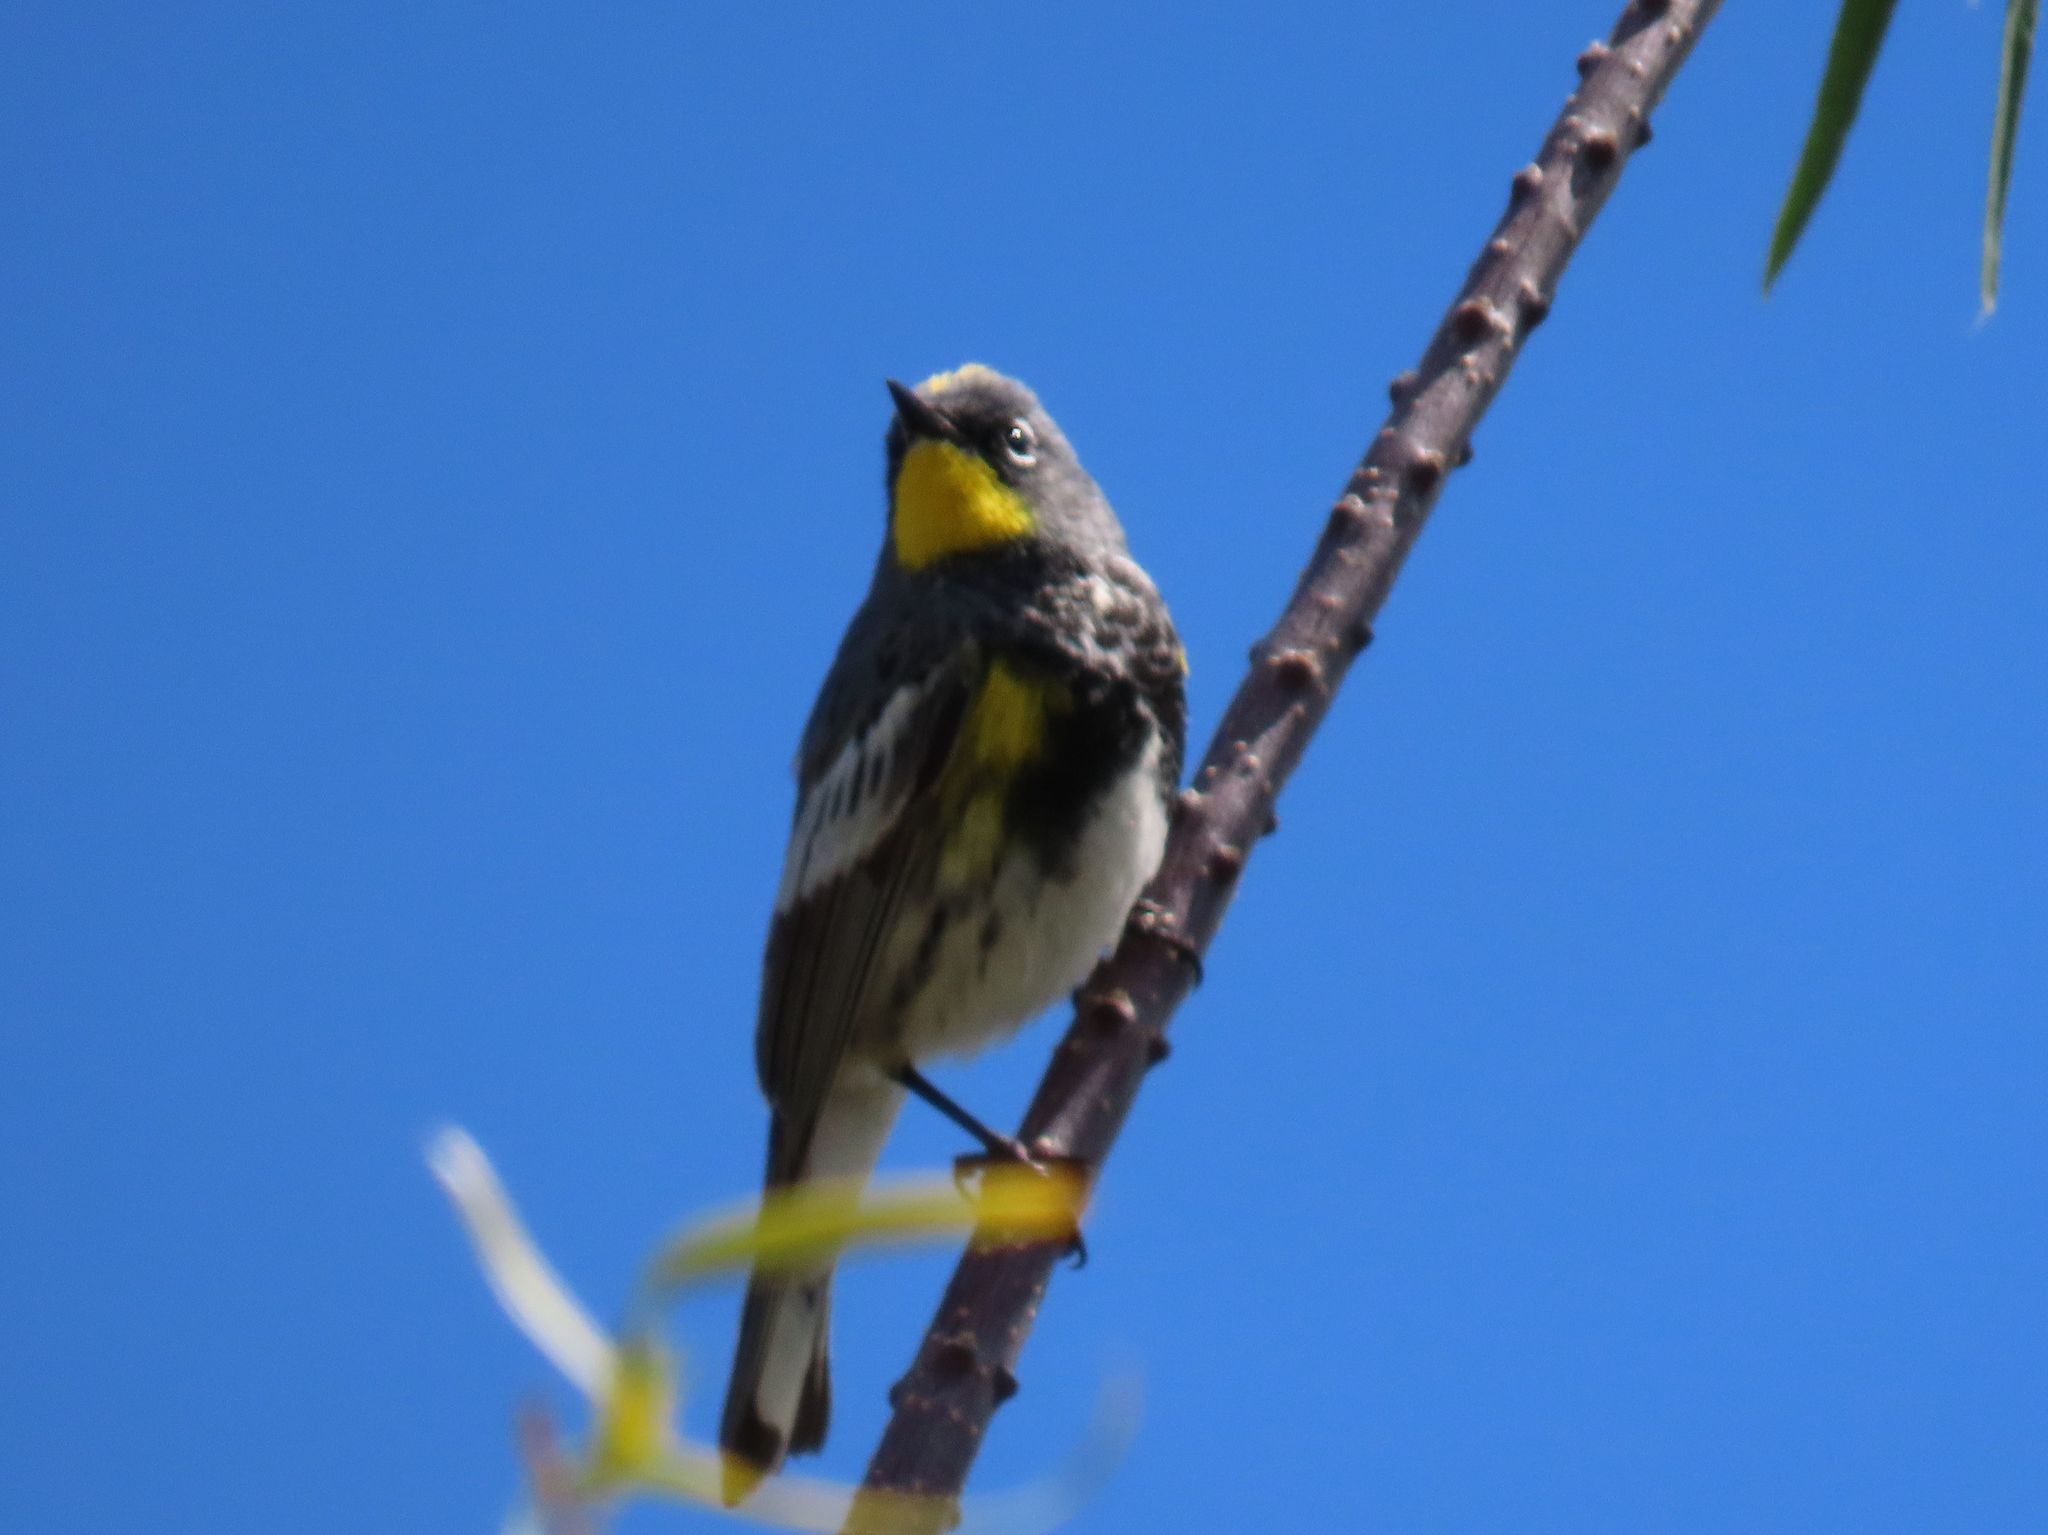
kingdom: Animalia
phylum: Chordata
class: Aves
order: Passeriformes
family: Parulidae
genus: Setophaga
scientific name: Setophaga auduboni
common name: Audubon's warbler
